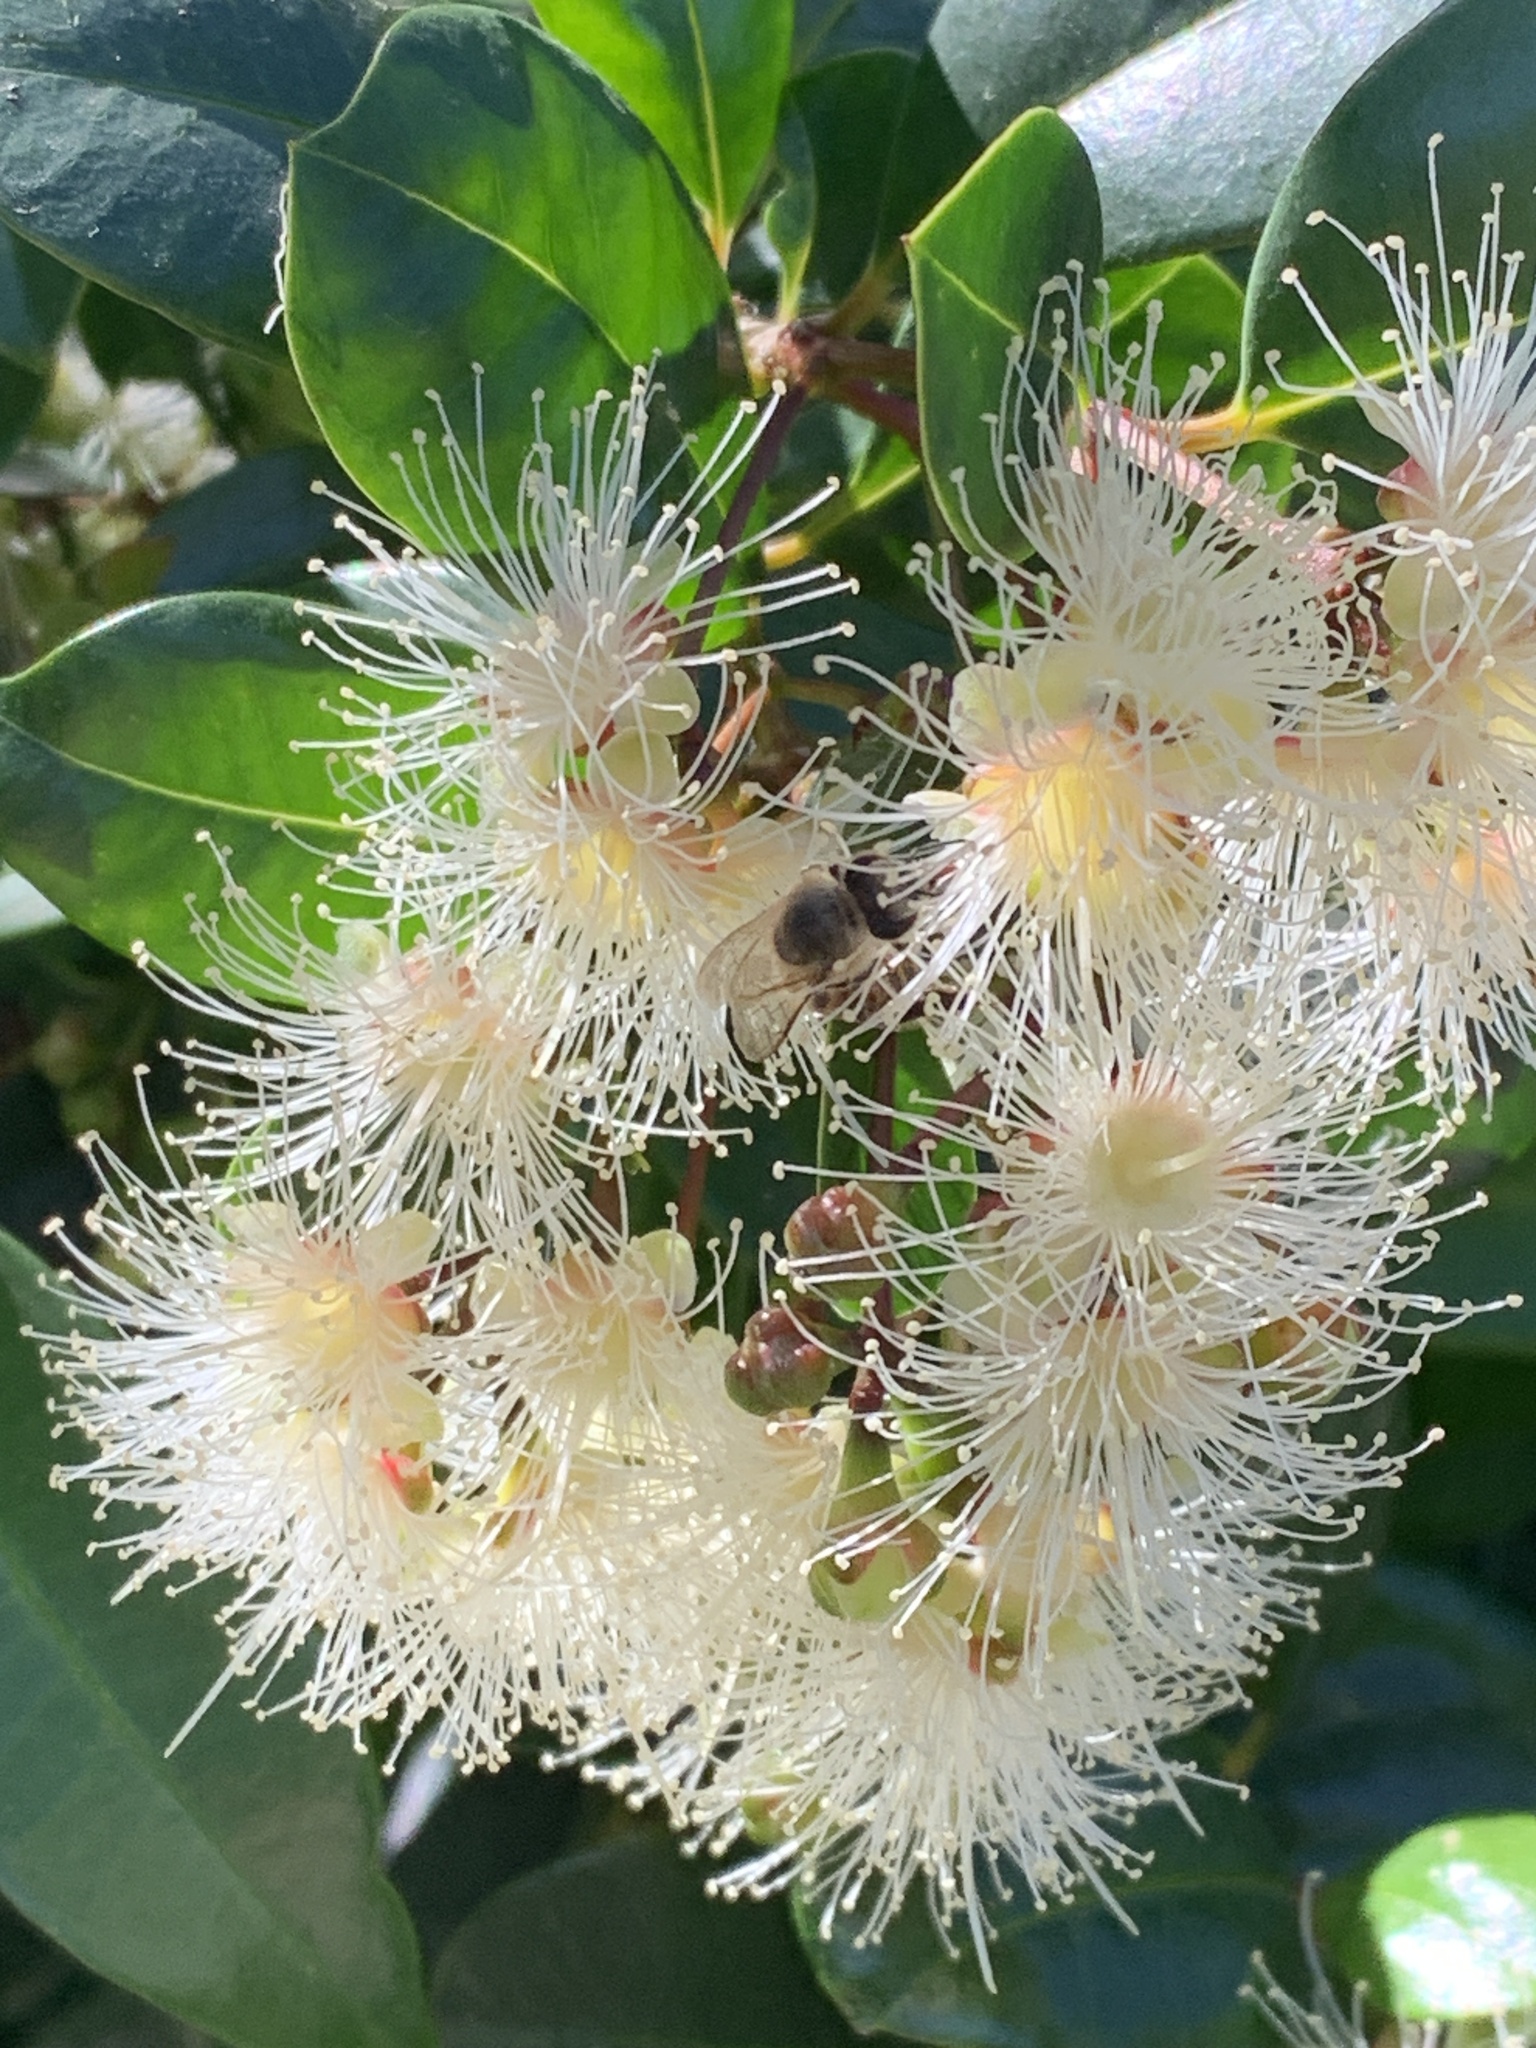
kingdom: Plantae
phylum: Tracheophyta
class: Magnoliopsida
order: Myrtales
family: Myrtaceae
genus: Syzygium
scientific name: Syzygium australe
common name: Australian brush-cherry
